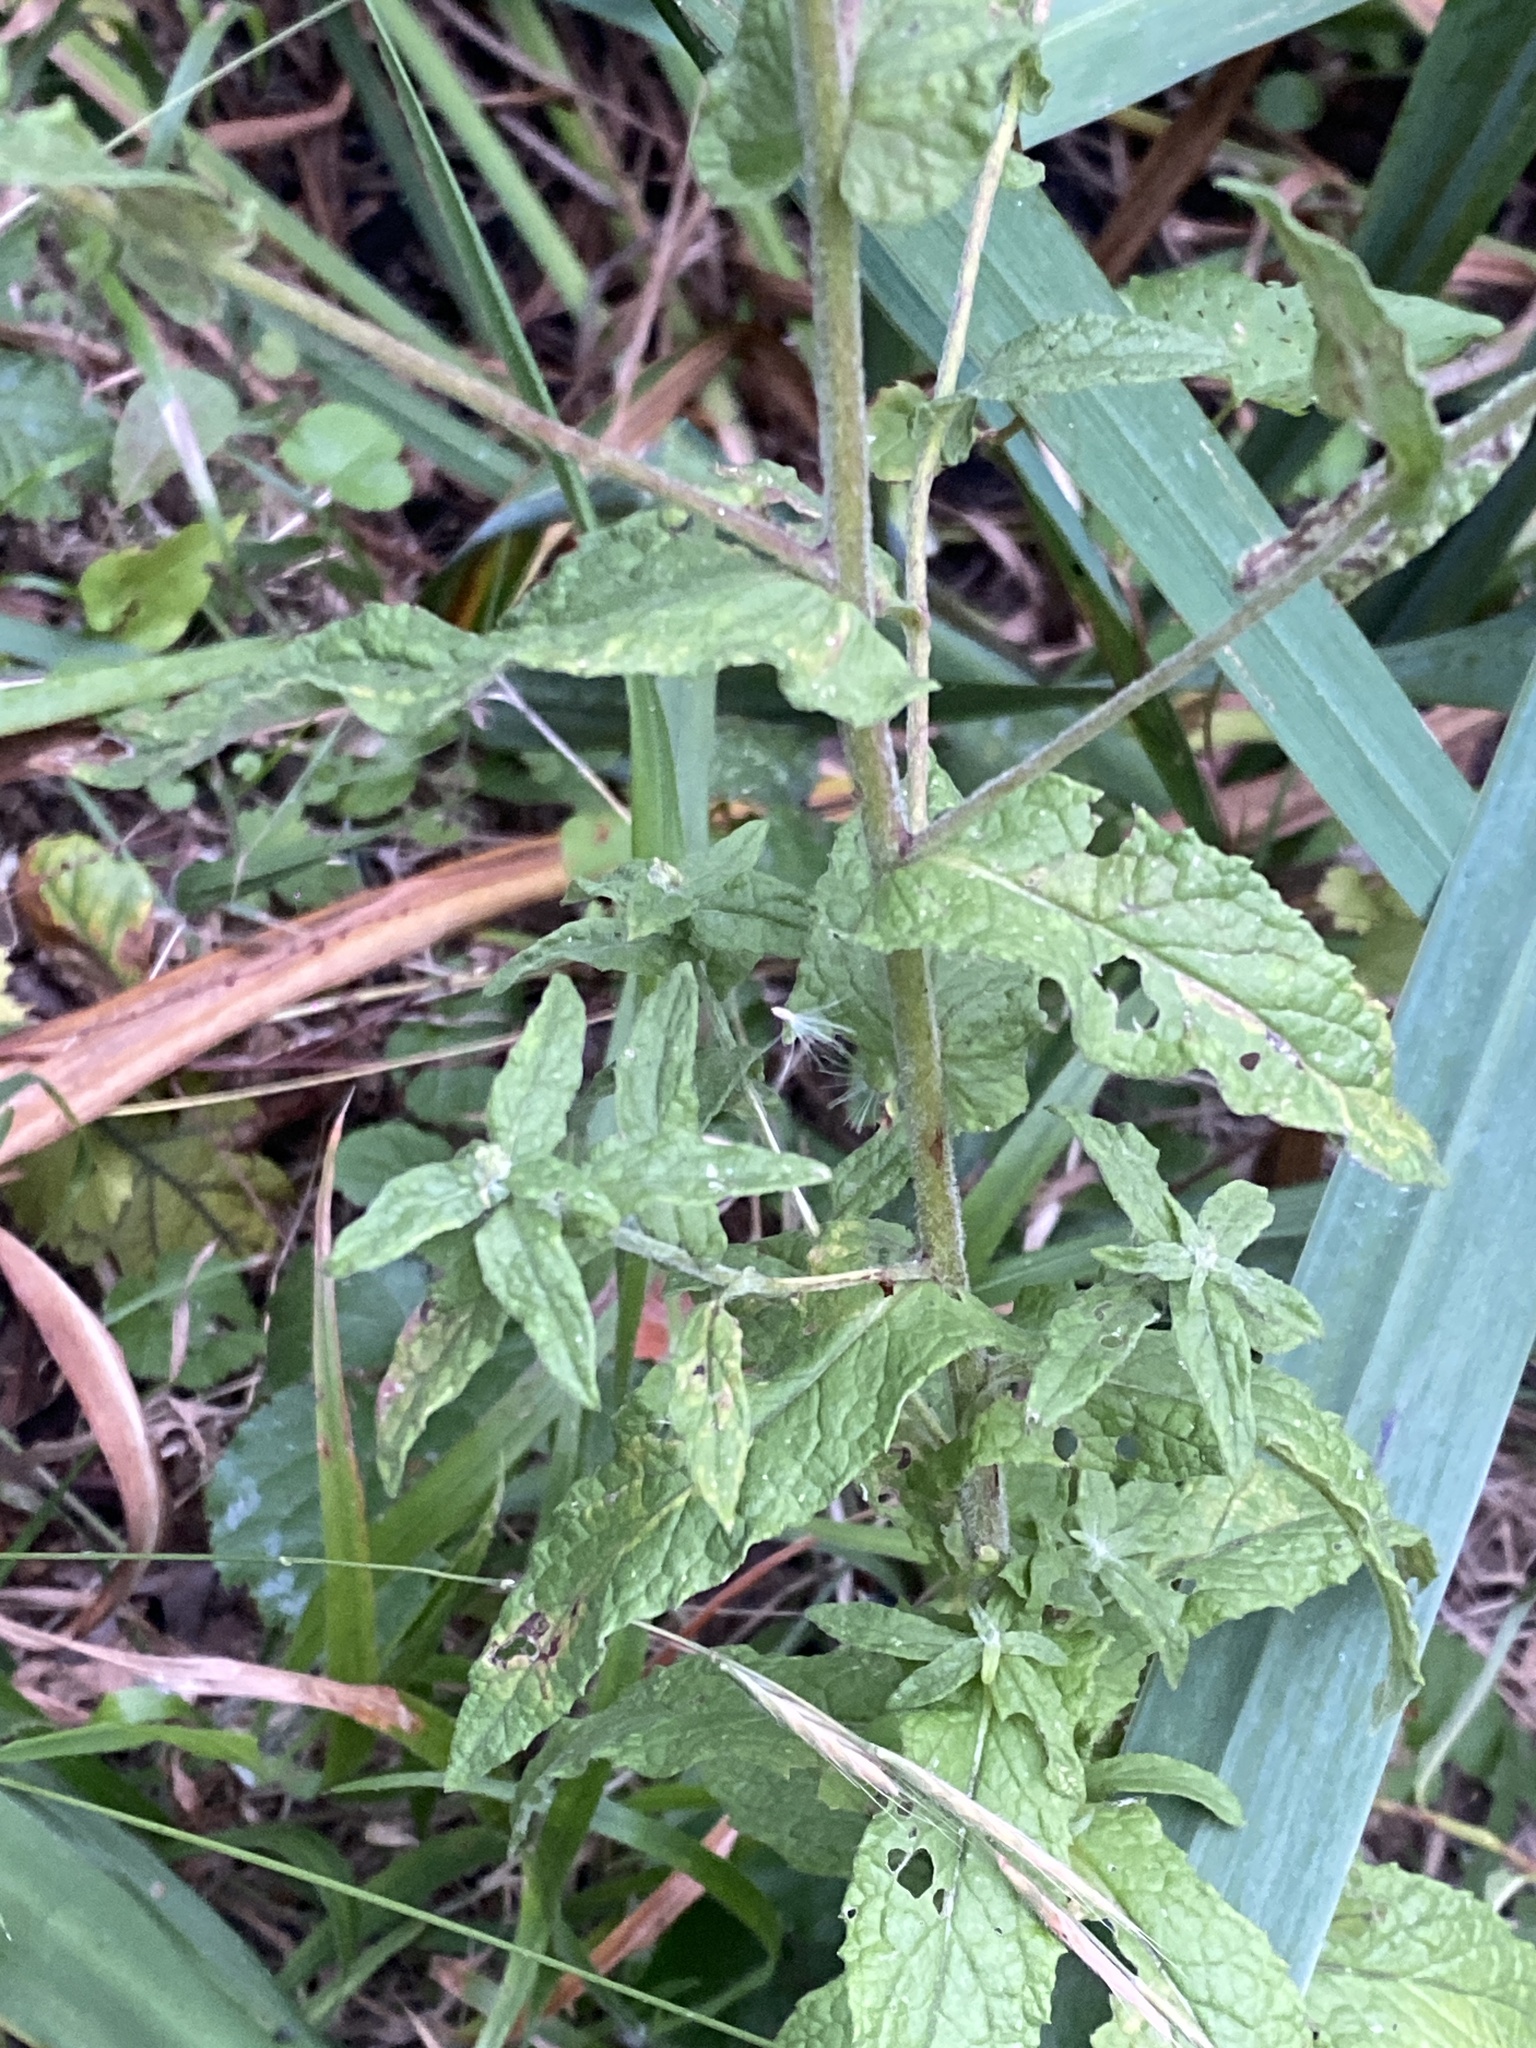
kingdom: Plantae
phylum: Tracheophyta
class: Magnoliopsida
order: Asterales
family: Asteraceae
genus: Pulicaria
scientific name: Pulicaria dysenterica
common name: Common fleabane
